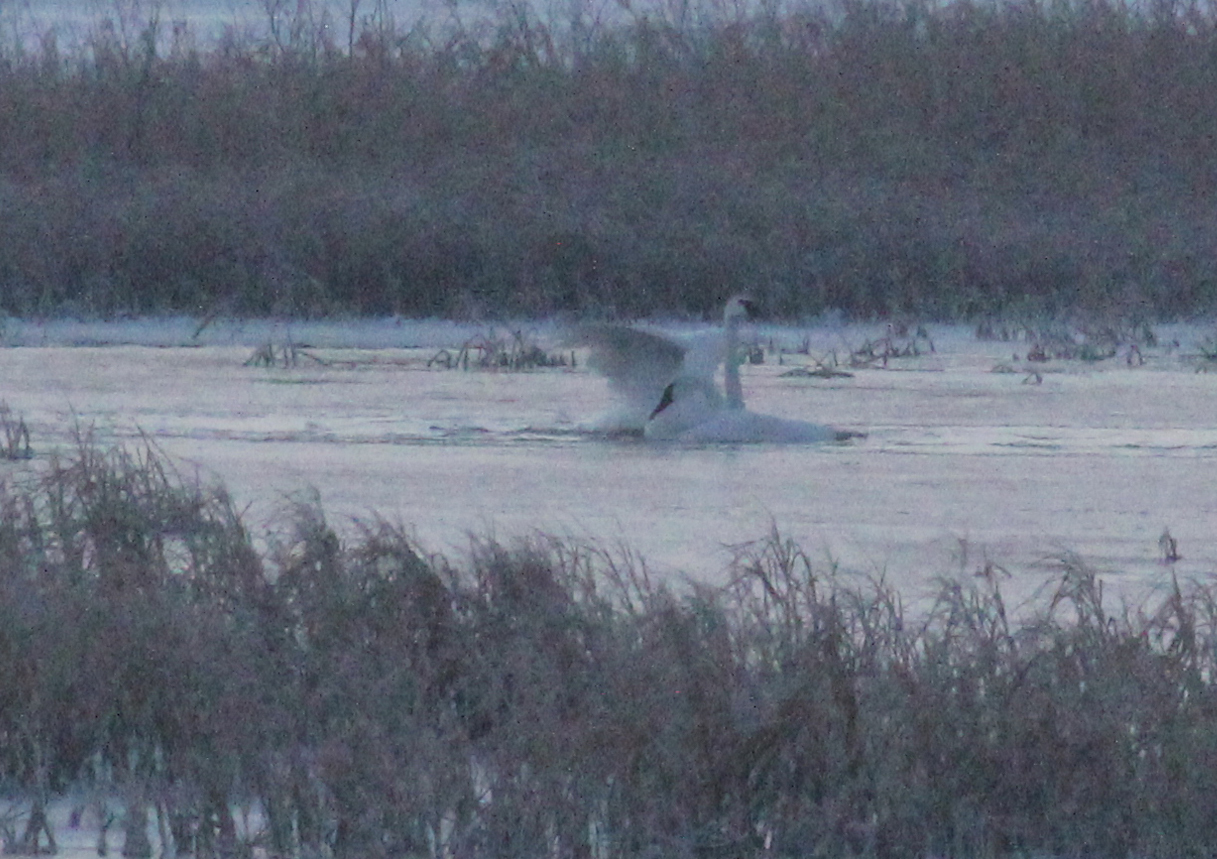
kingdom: Animalia
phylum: Chordata
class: Aves
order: Anseriformes
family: Anatidae
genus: Cygnus
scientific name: Cygnus buccinator
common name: Trumpeter swan
